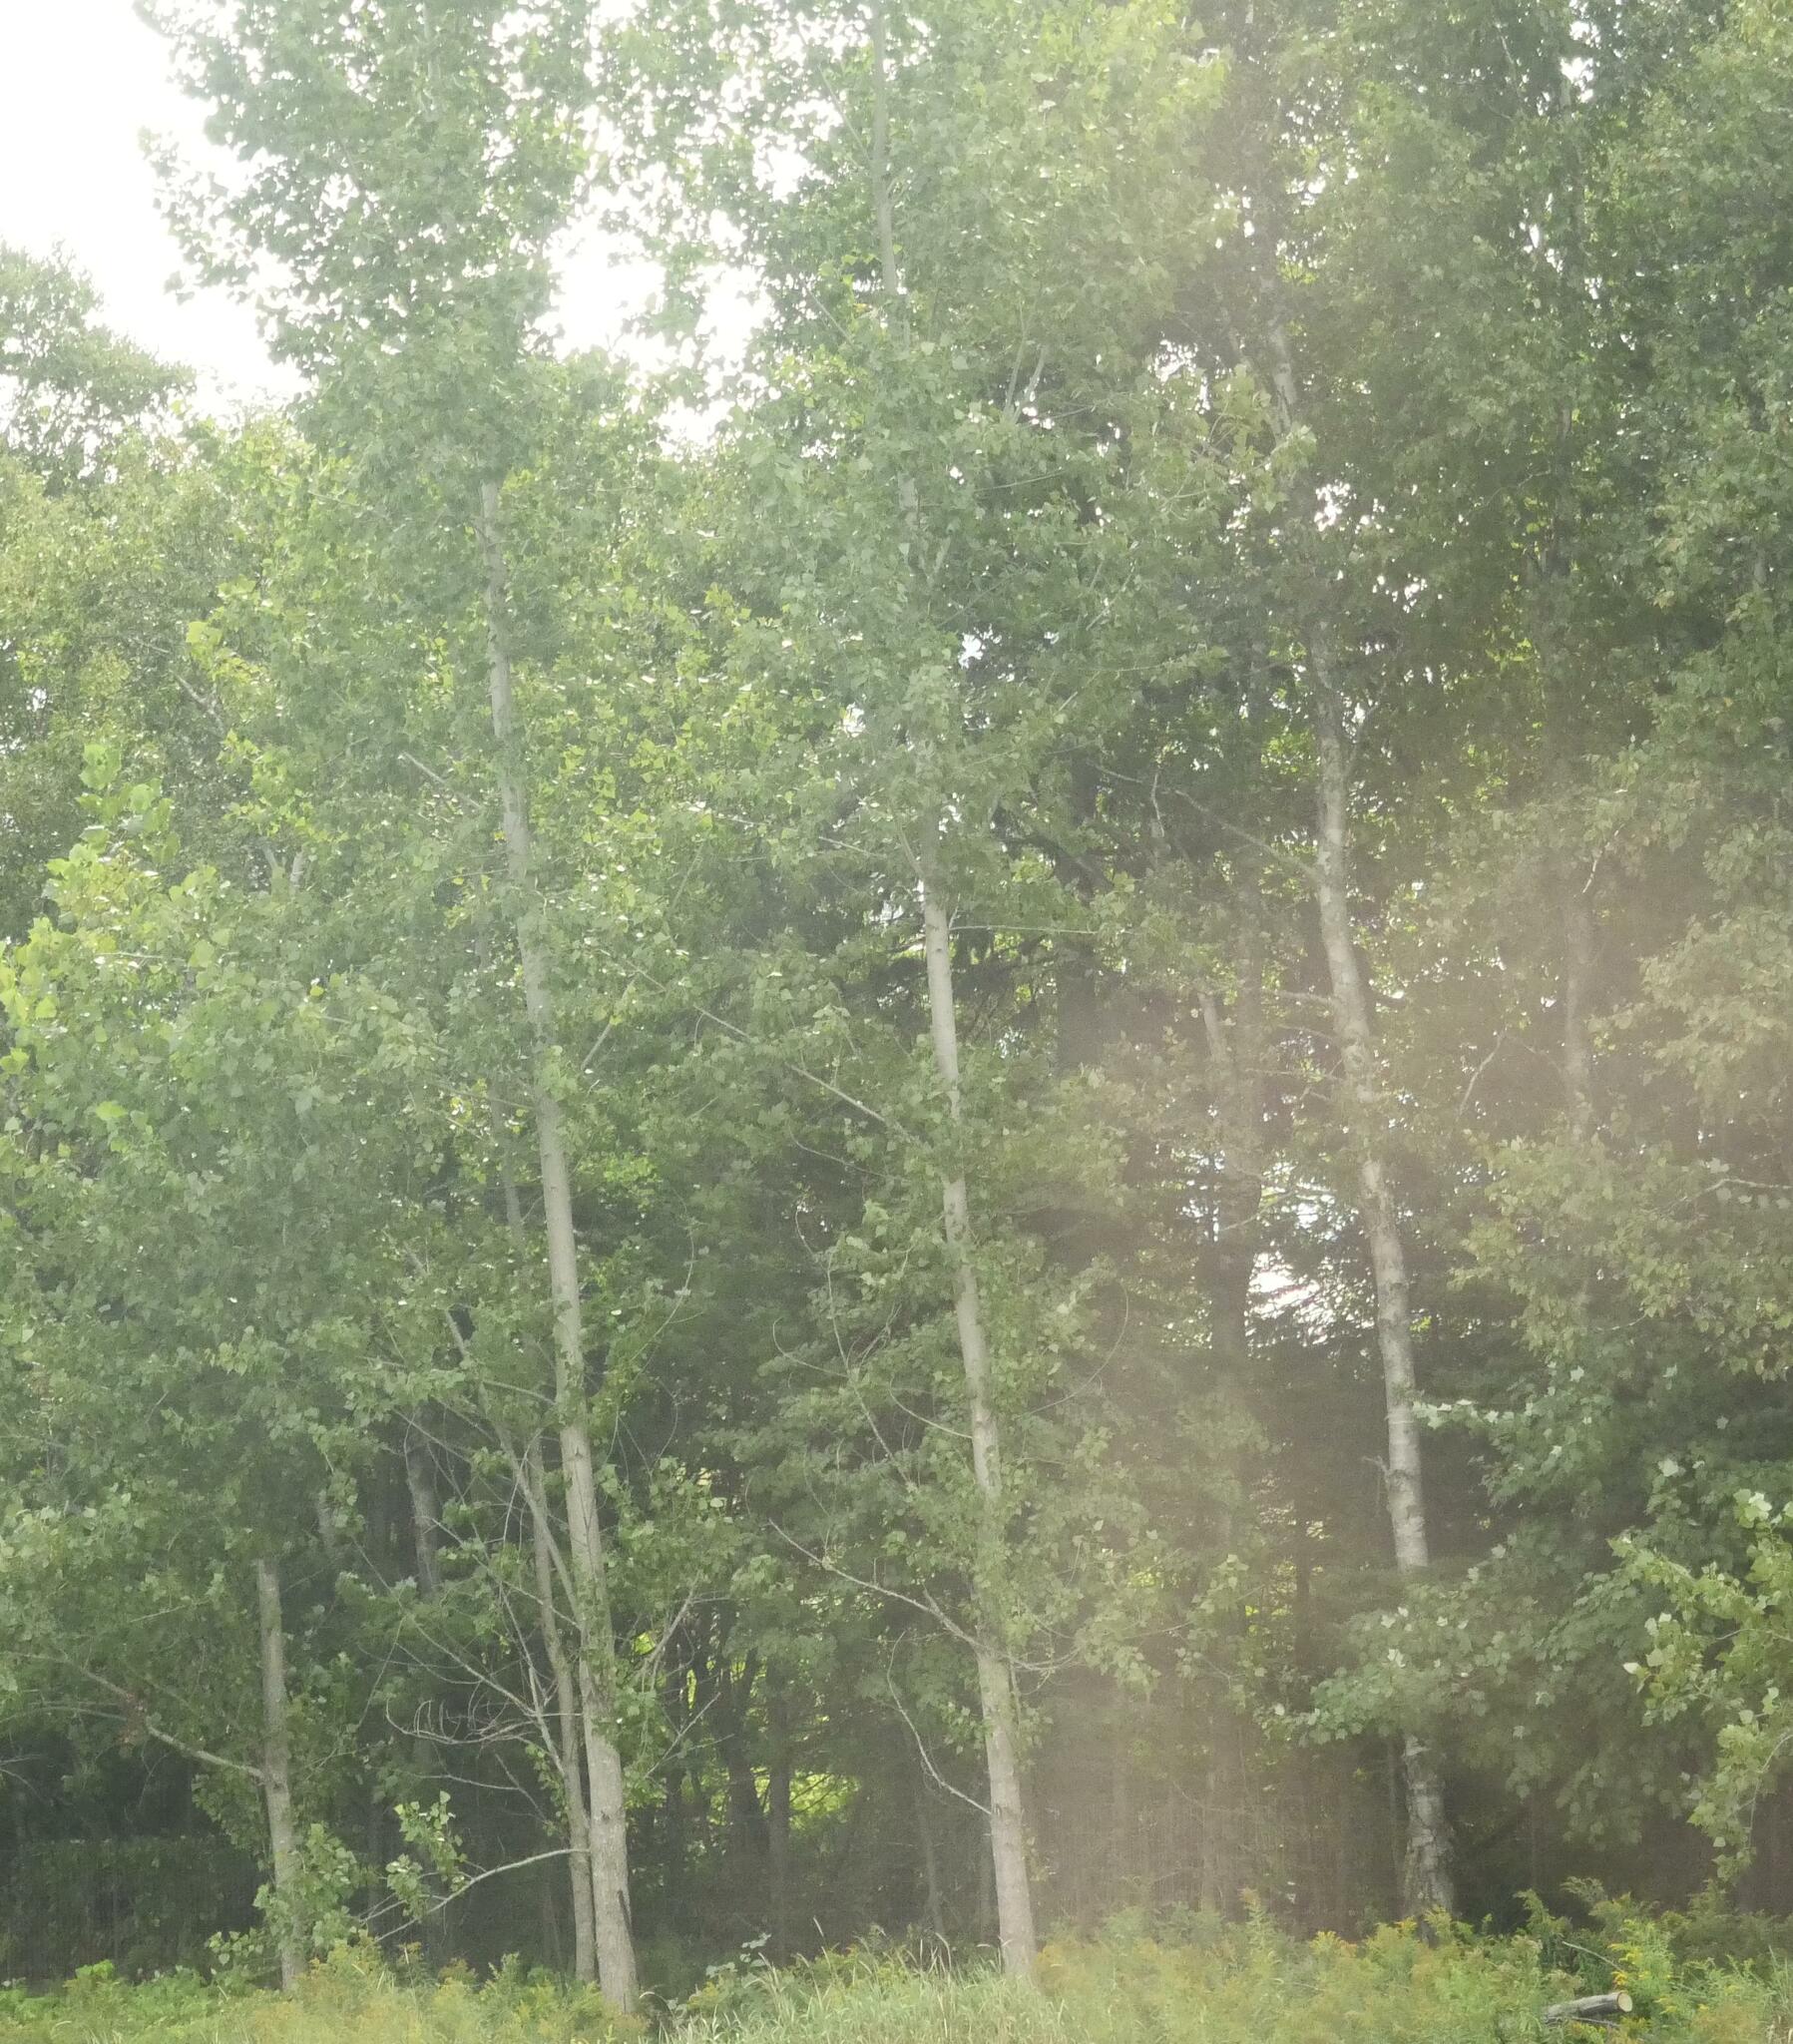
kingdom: Plantae
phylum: Tracheophyta
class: Magnoliopsida
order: Malpighiales
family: Salicaceae
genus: Populus
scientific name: Populus tremuloides
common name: Quaking aspen
